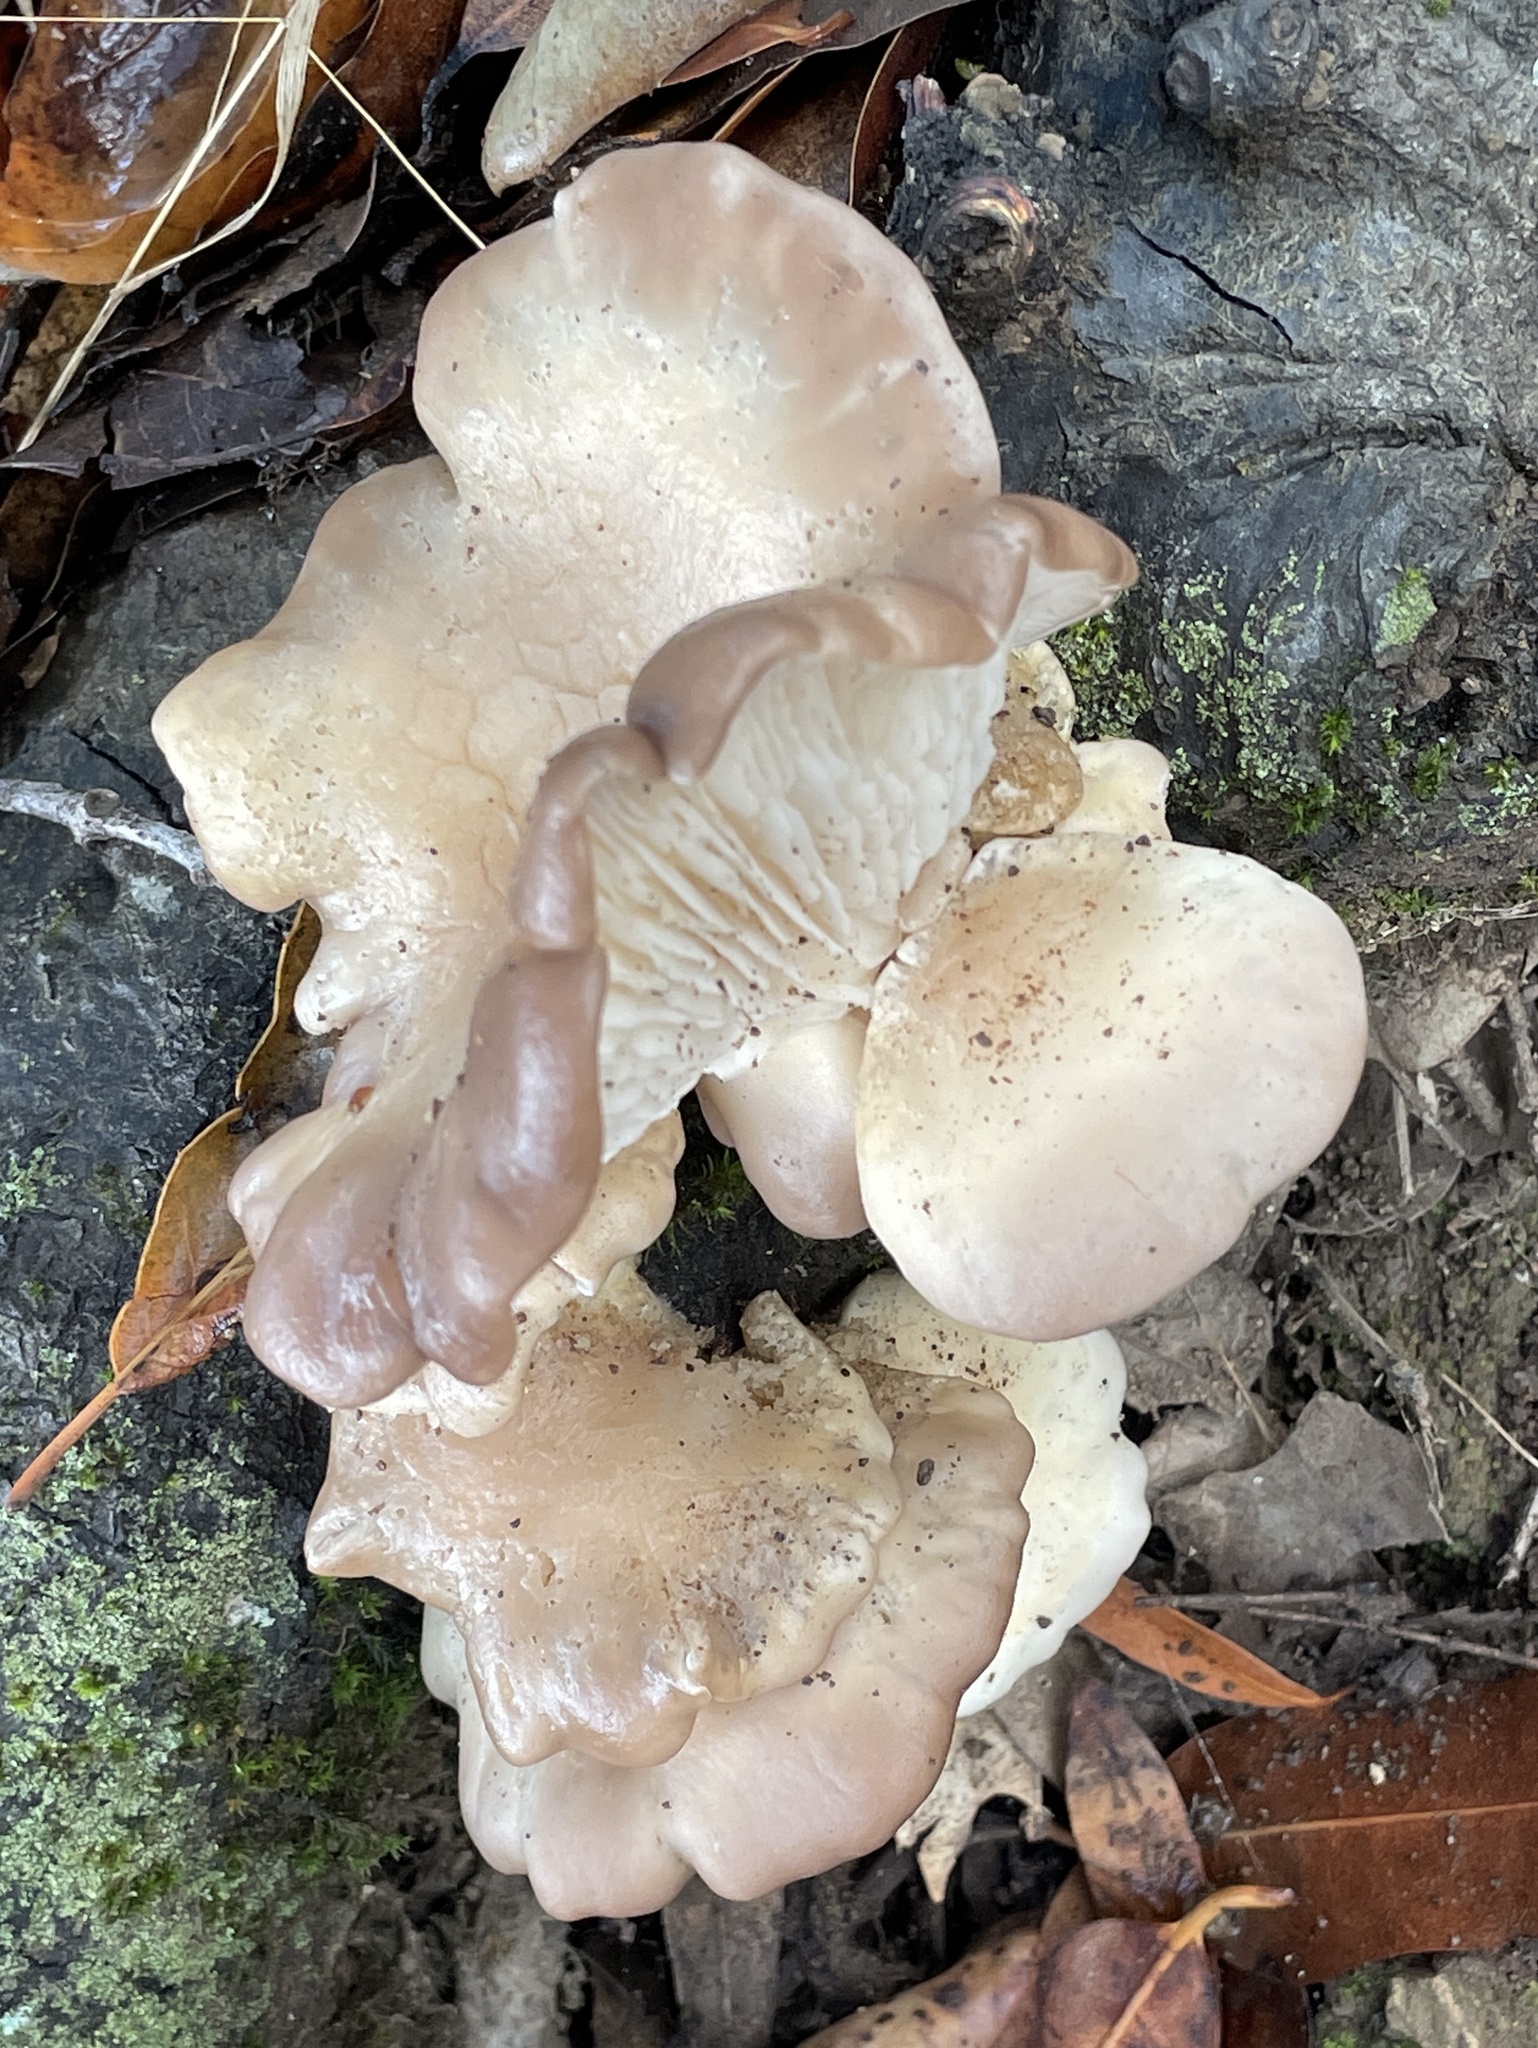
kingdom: Fungi
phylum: Basidiomycota
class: Agaricomycetes
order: Agaricales
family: Pleurotaceae
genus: Pleurotus
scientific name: Pleurotus ostreatus
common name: Oyster mushroom
